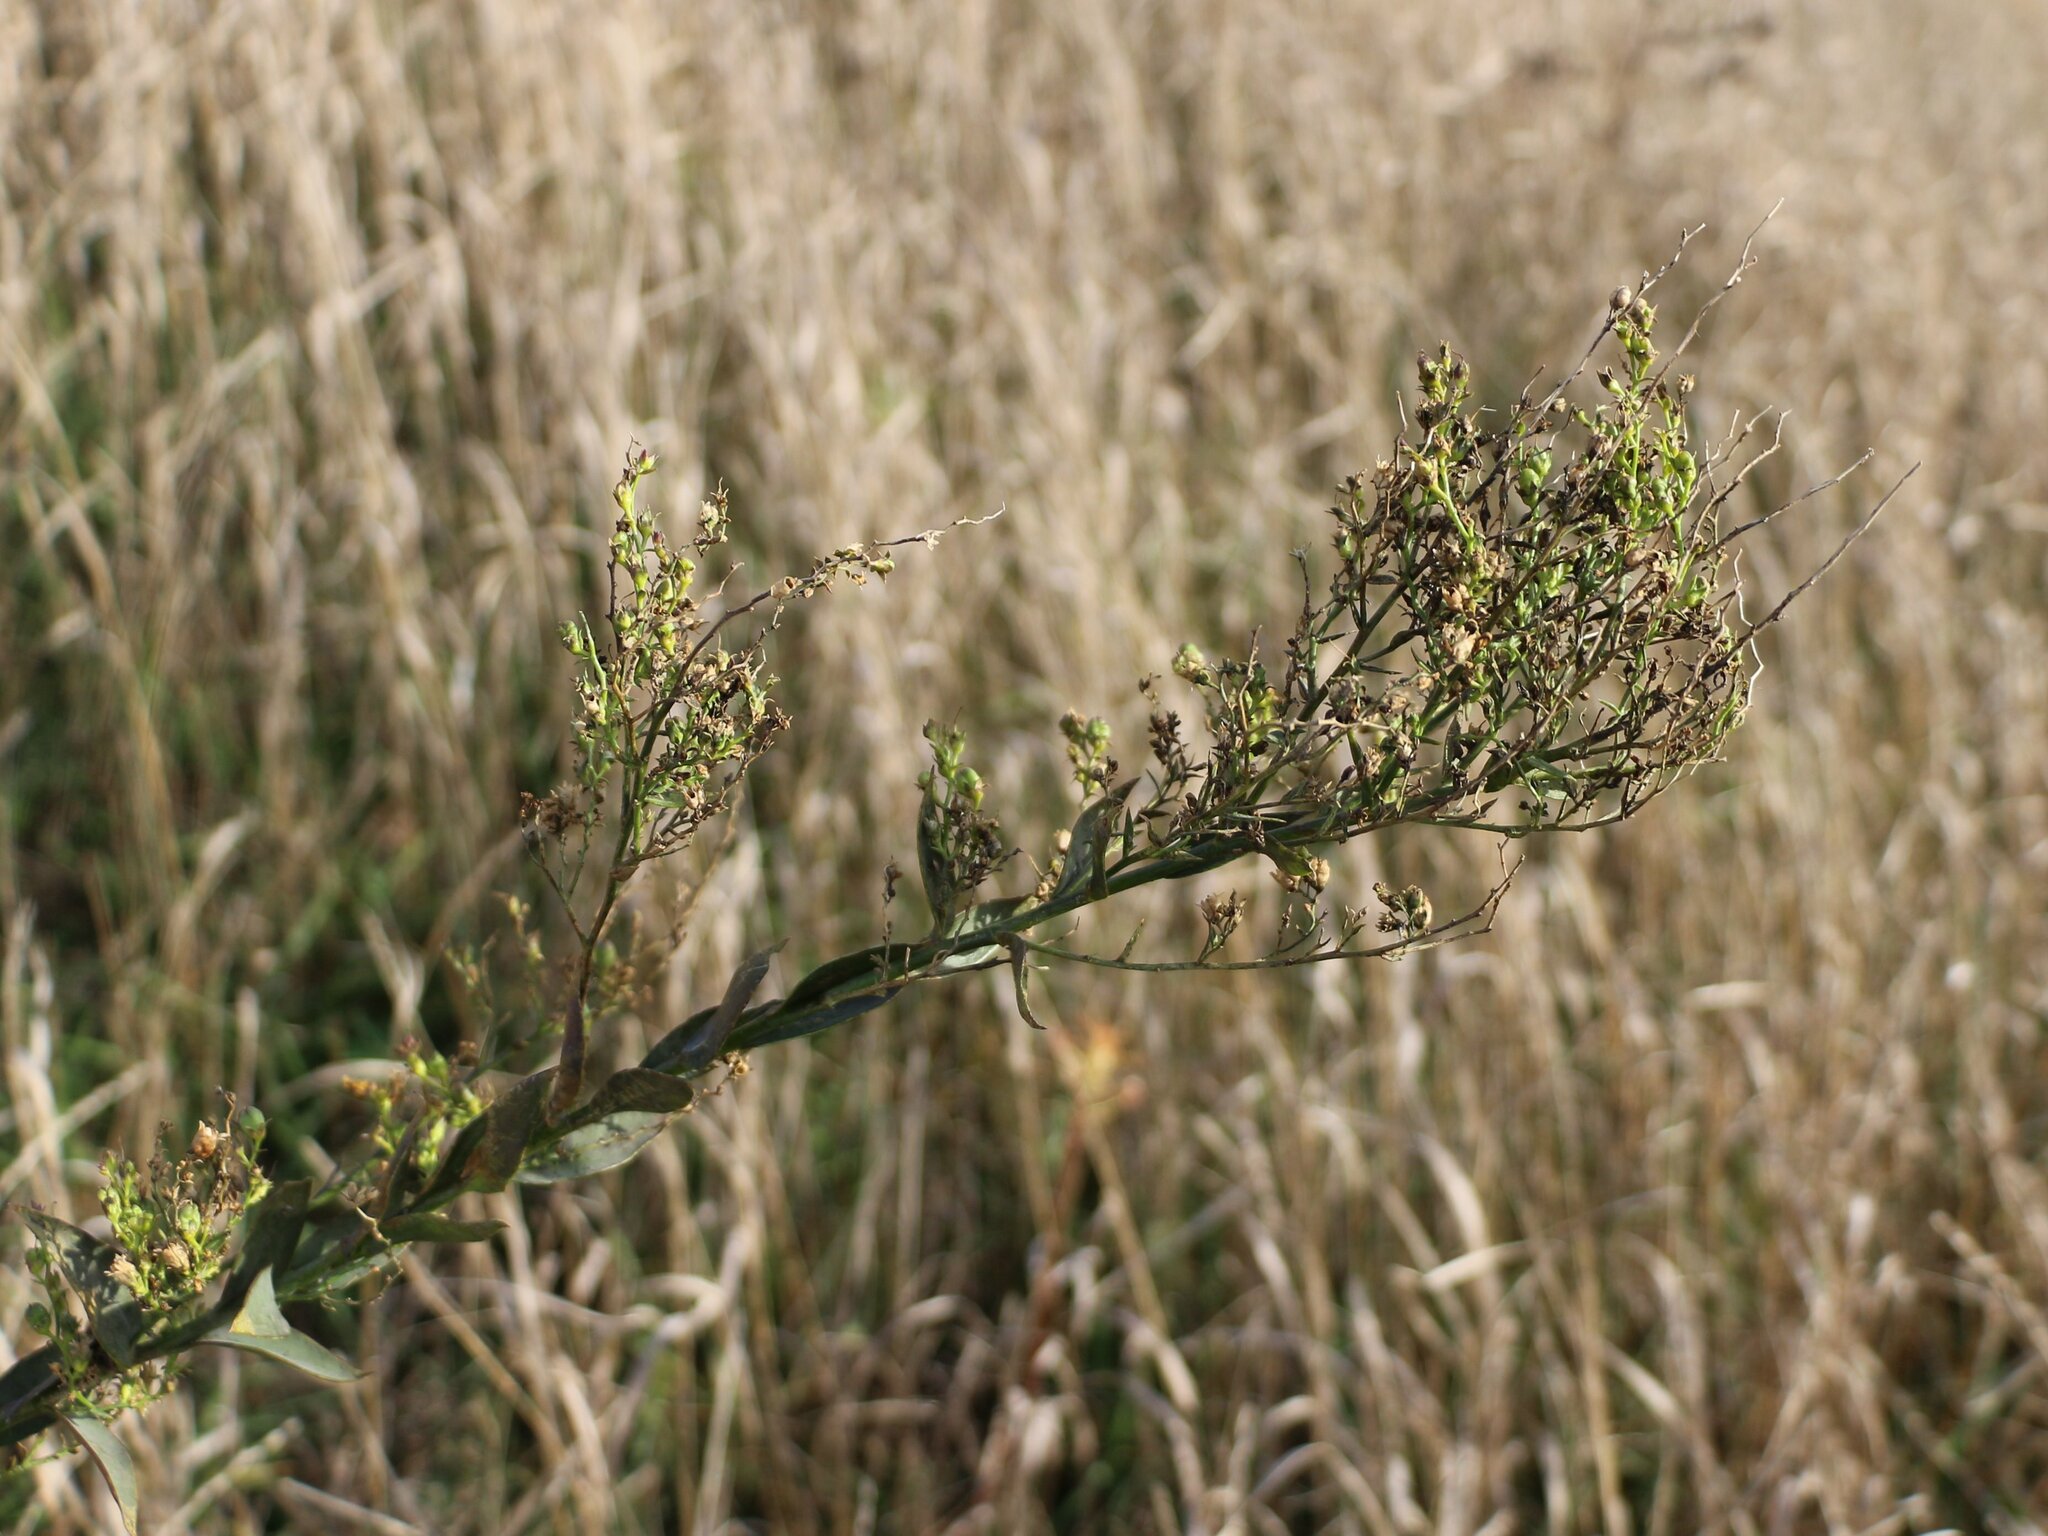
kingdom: Plantae
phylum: Tracheophyta
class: Magnoliopsida
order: Lamiales
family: Plantaginaceae
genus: Linaria
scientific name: Linaria genistifolia
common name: Broomleaf toadflax
